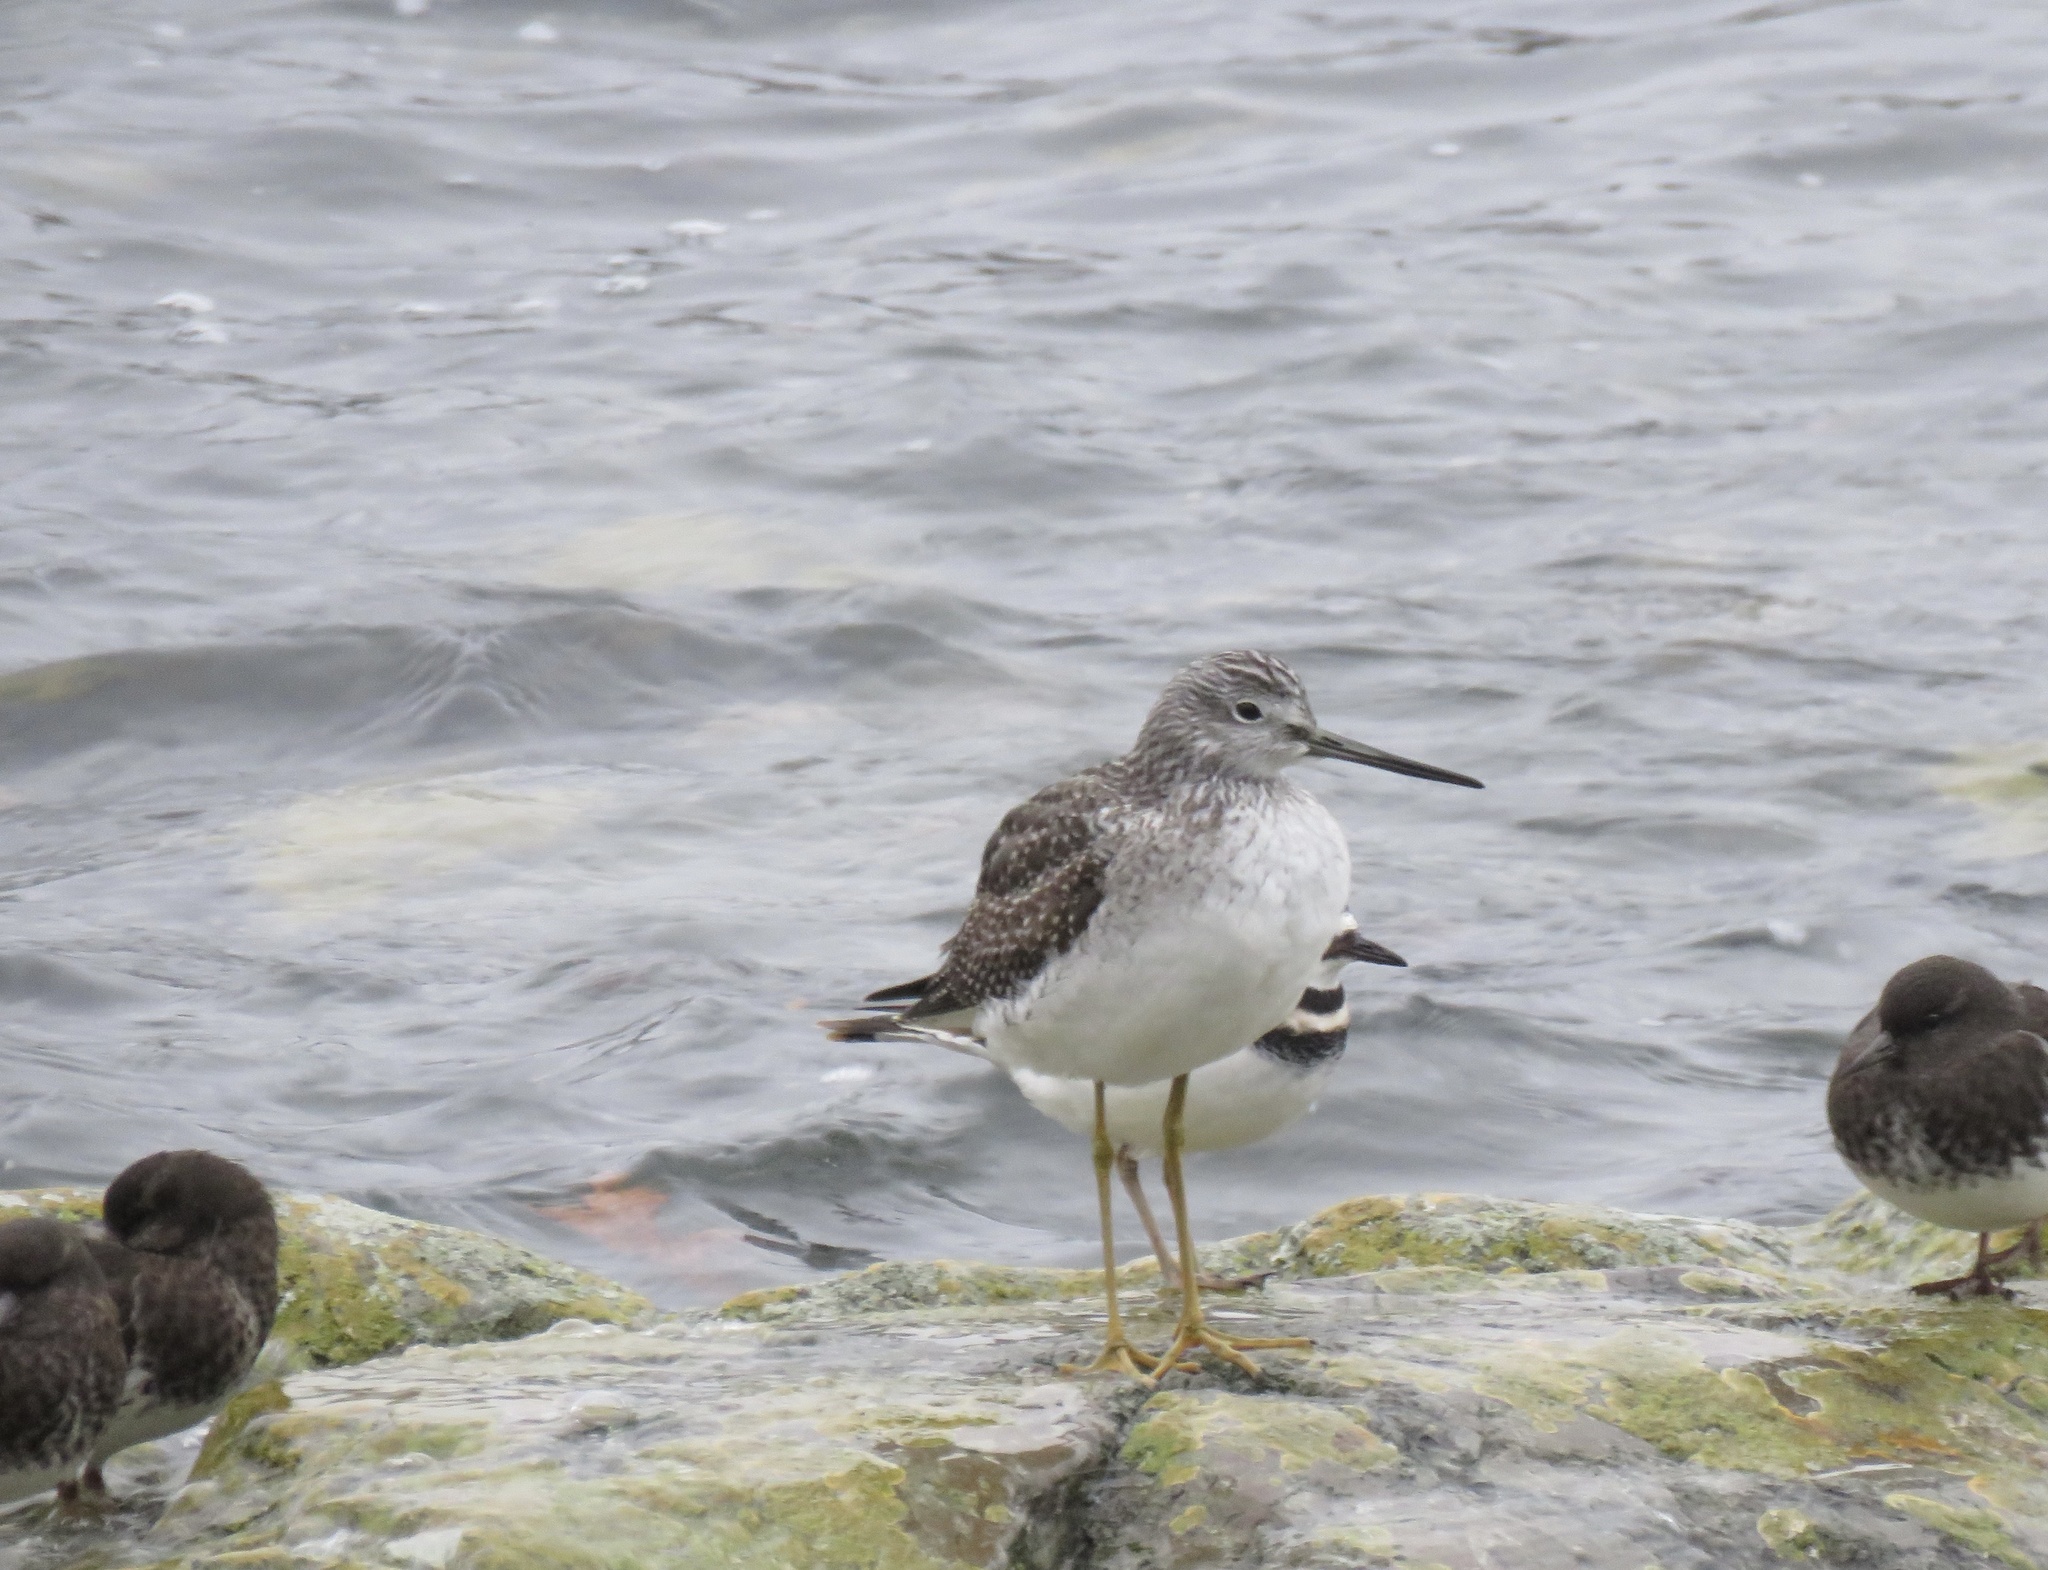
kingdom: Animalia
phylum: Chordata
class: Aves
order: Charadriiformes
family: Scolopacidae
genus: Tringa
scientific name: Tringa melanoleuca
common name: Greater yellowlegs
